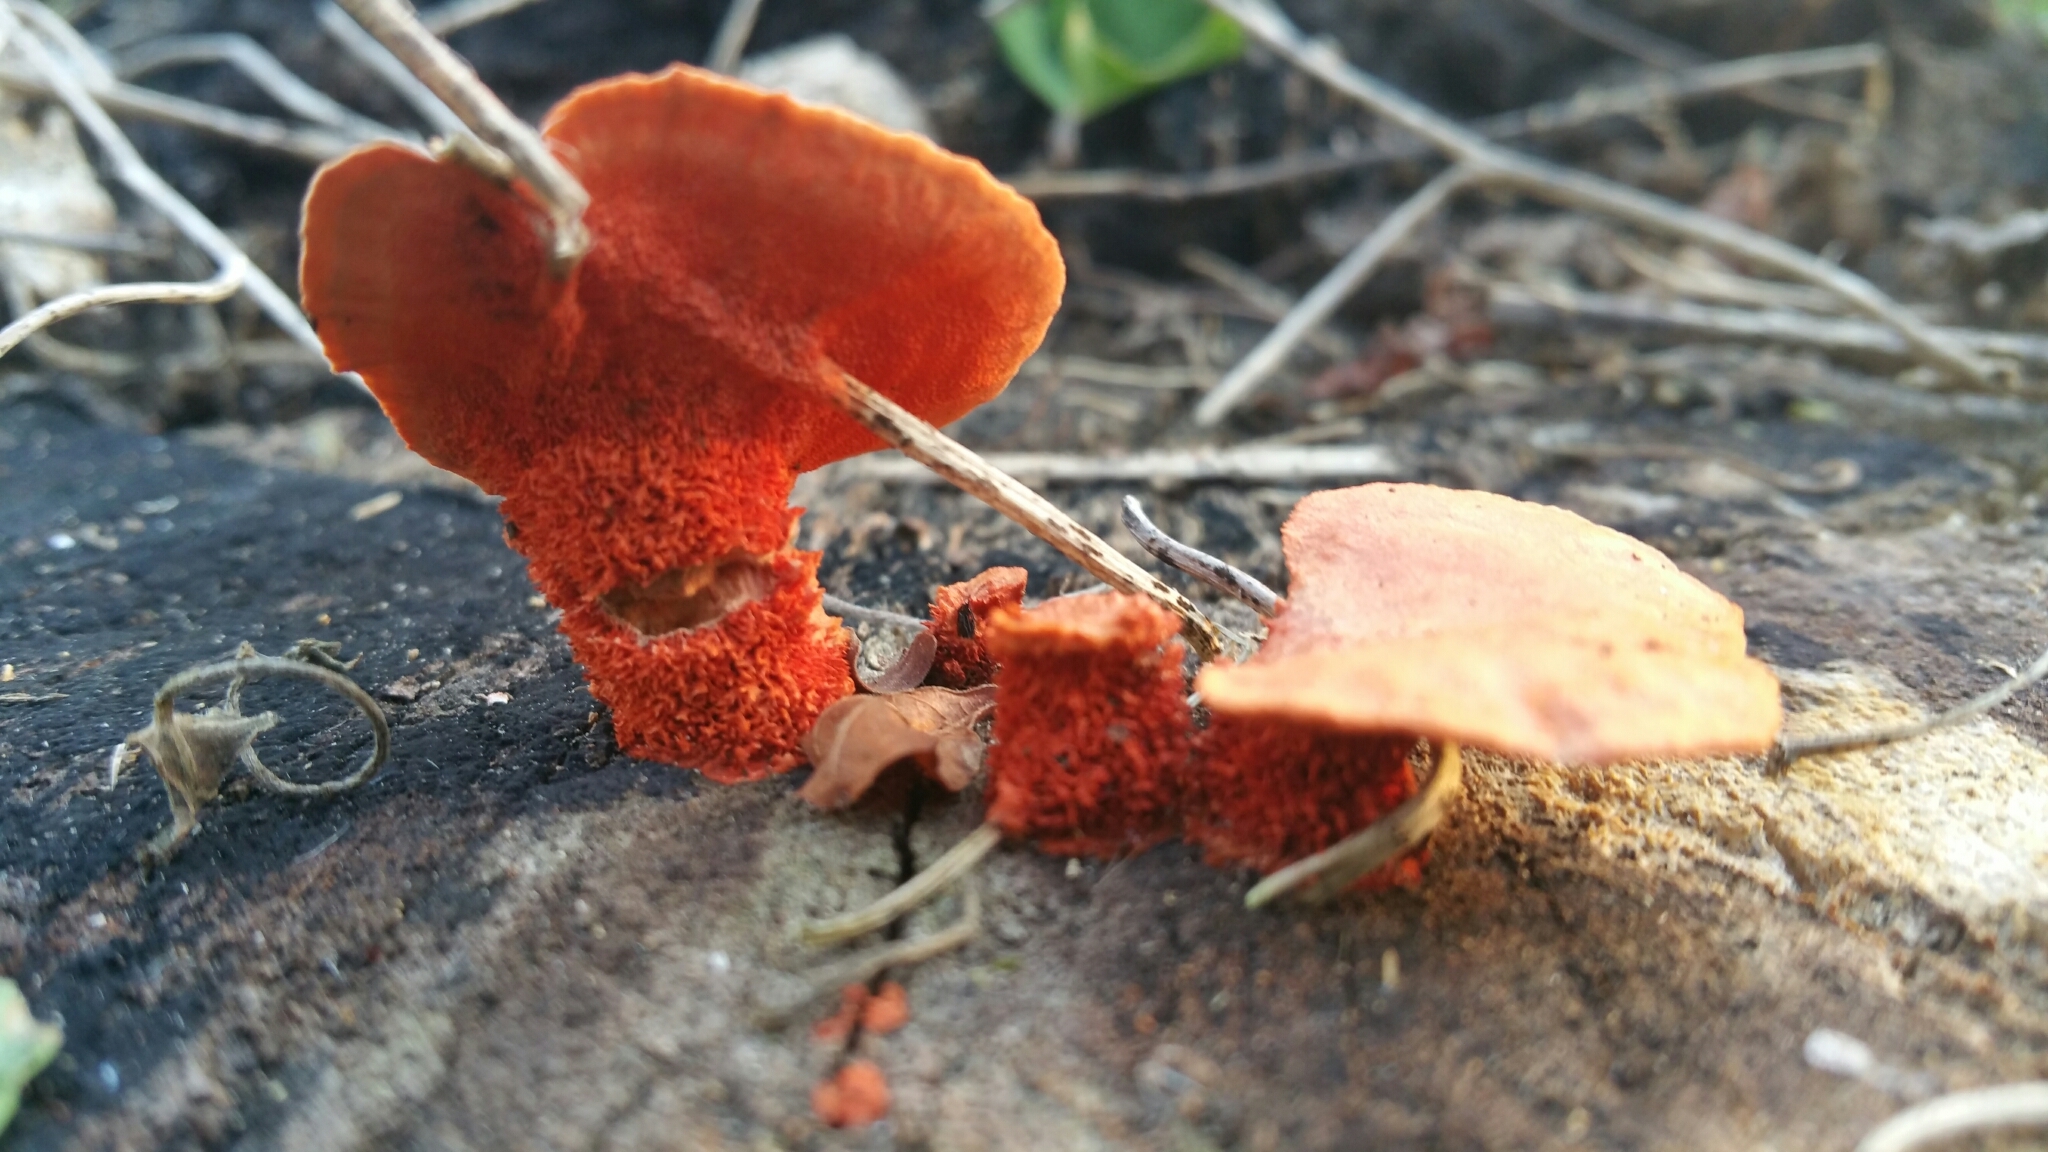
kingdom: Fungi
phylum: Basidiomycota
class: Agaricomycetes
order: Polyporales
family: Polyporaceae
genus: Trametes
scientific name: Trametes coccinea
